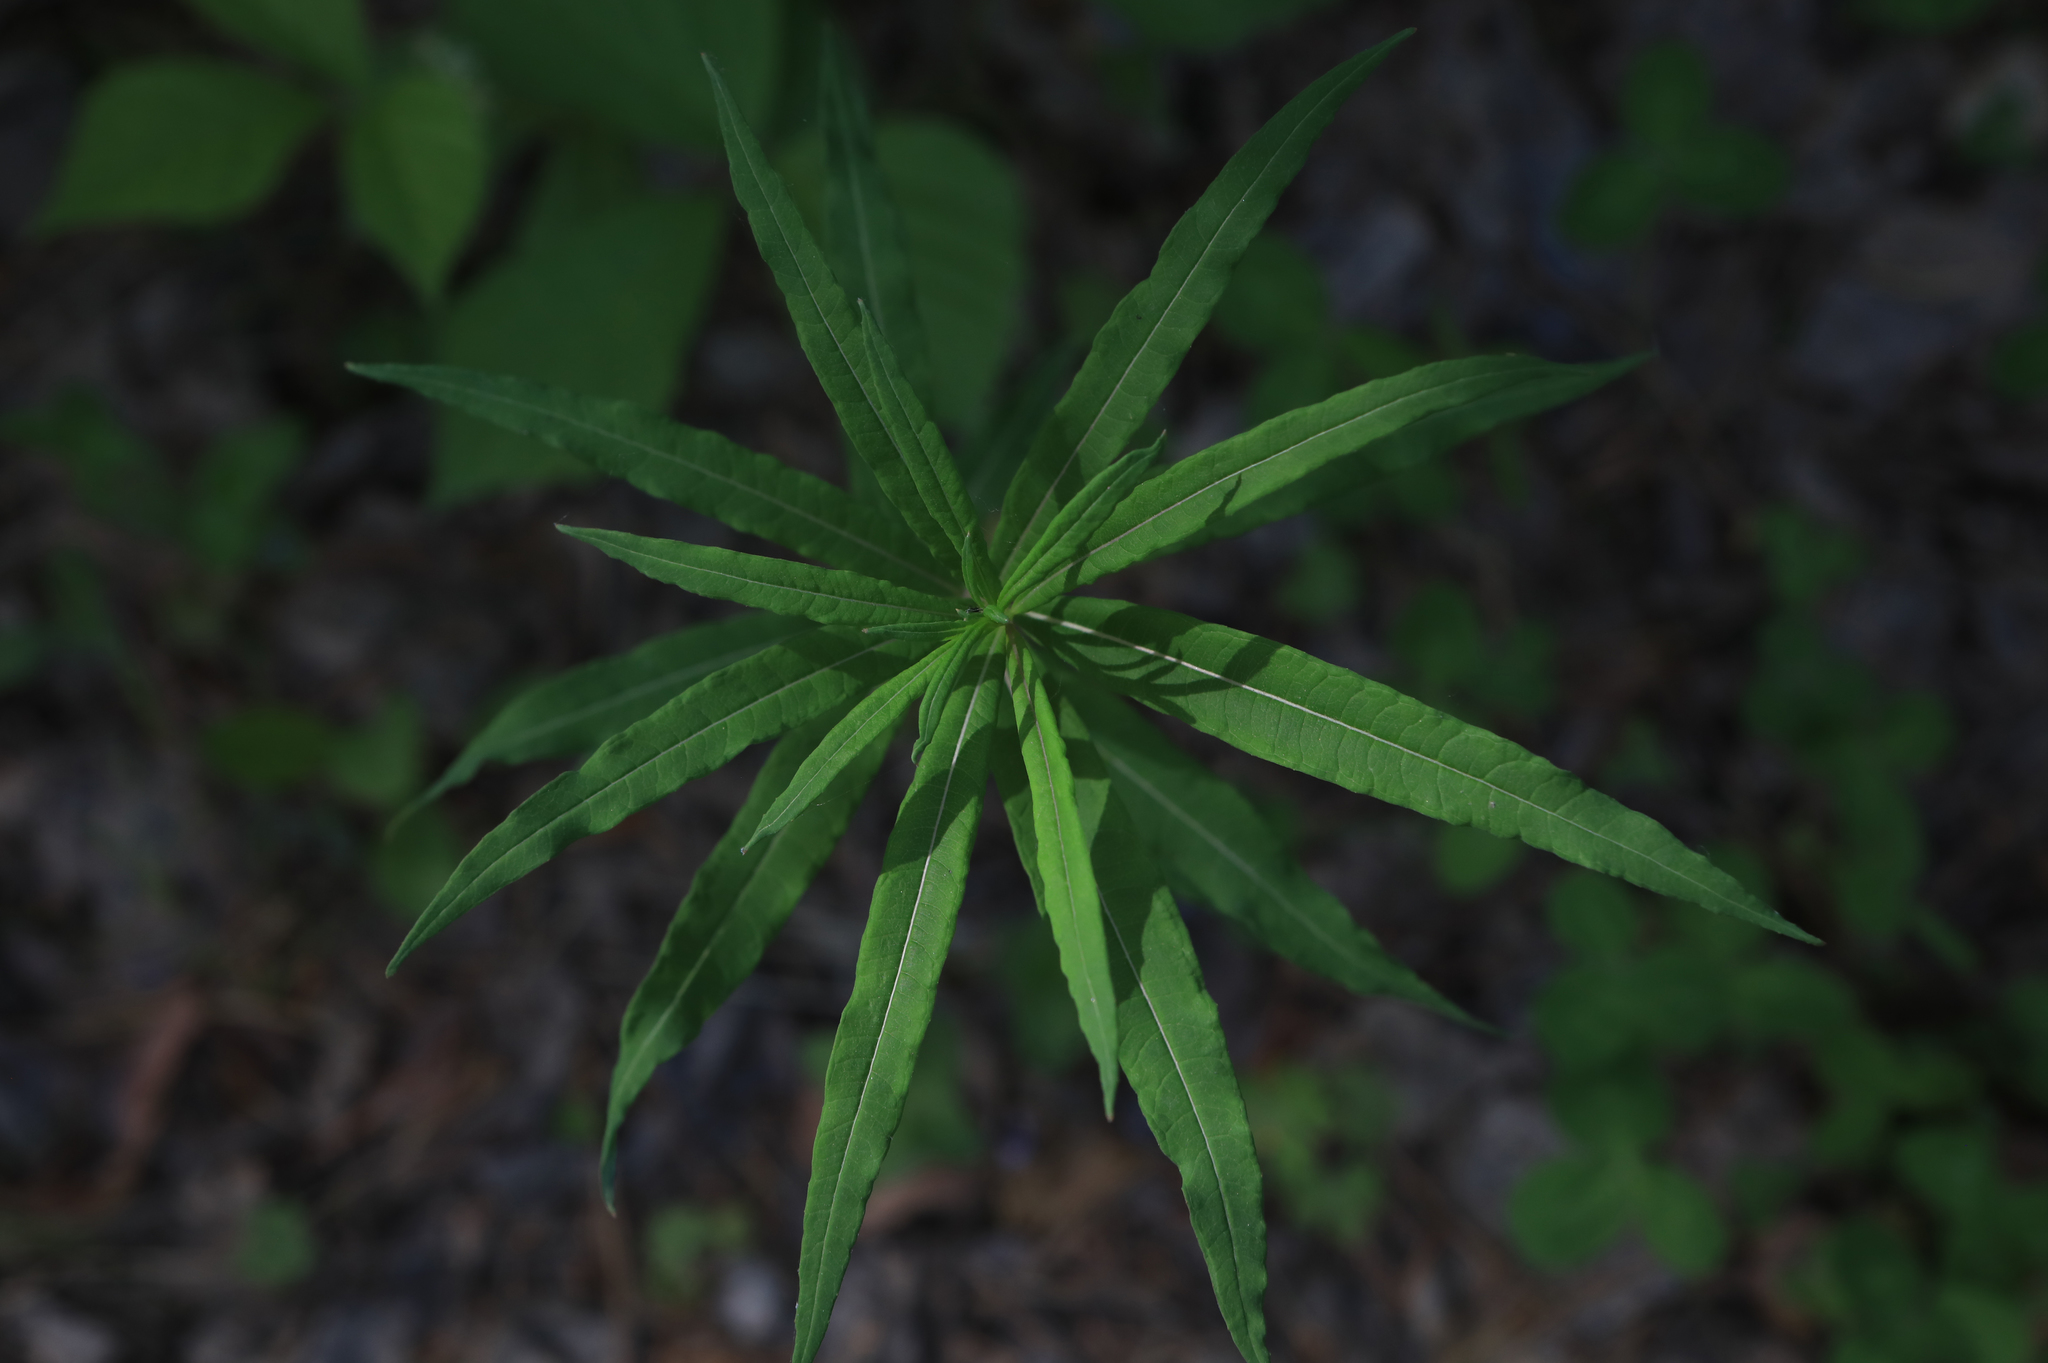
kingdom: Plantae
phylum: Tracheophyta
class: Magnoliopsida
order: Myrtales
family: Onagraceae
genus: Chamaenerion
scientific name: Chamaenerion angustifolium
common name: Fireweed
